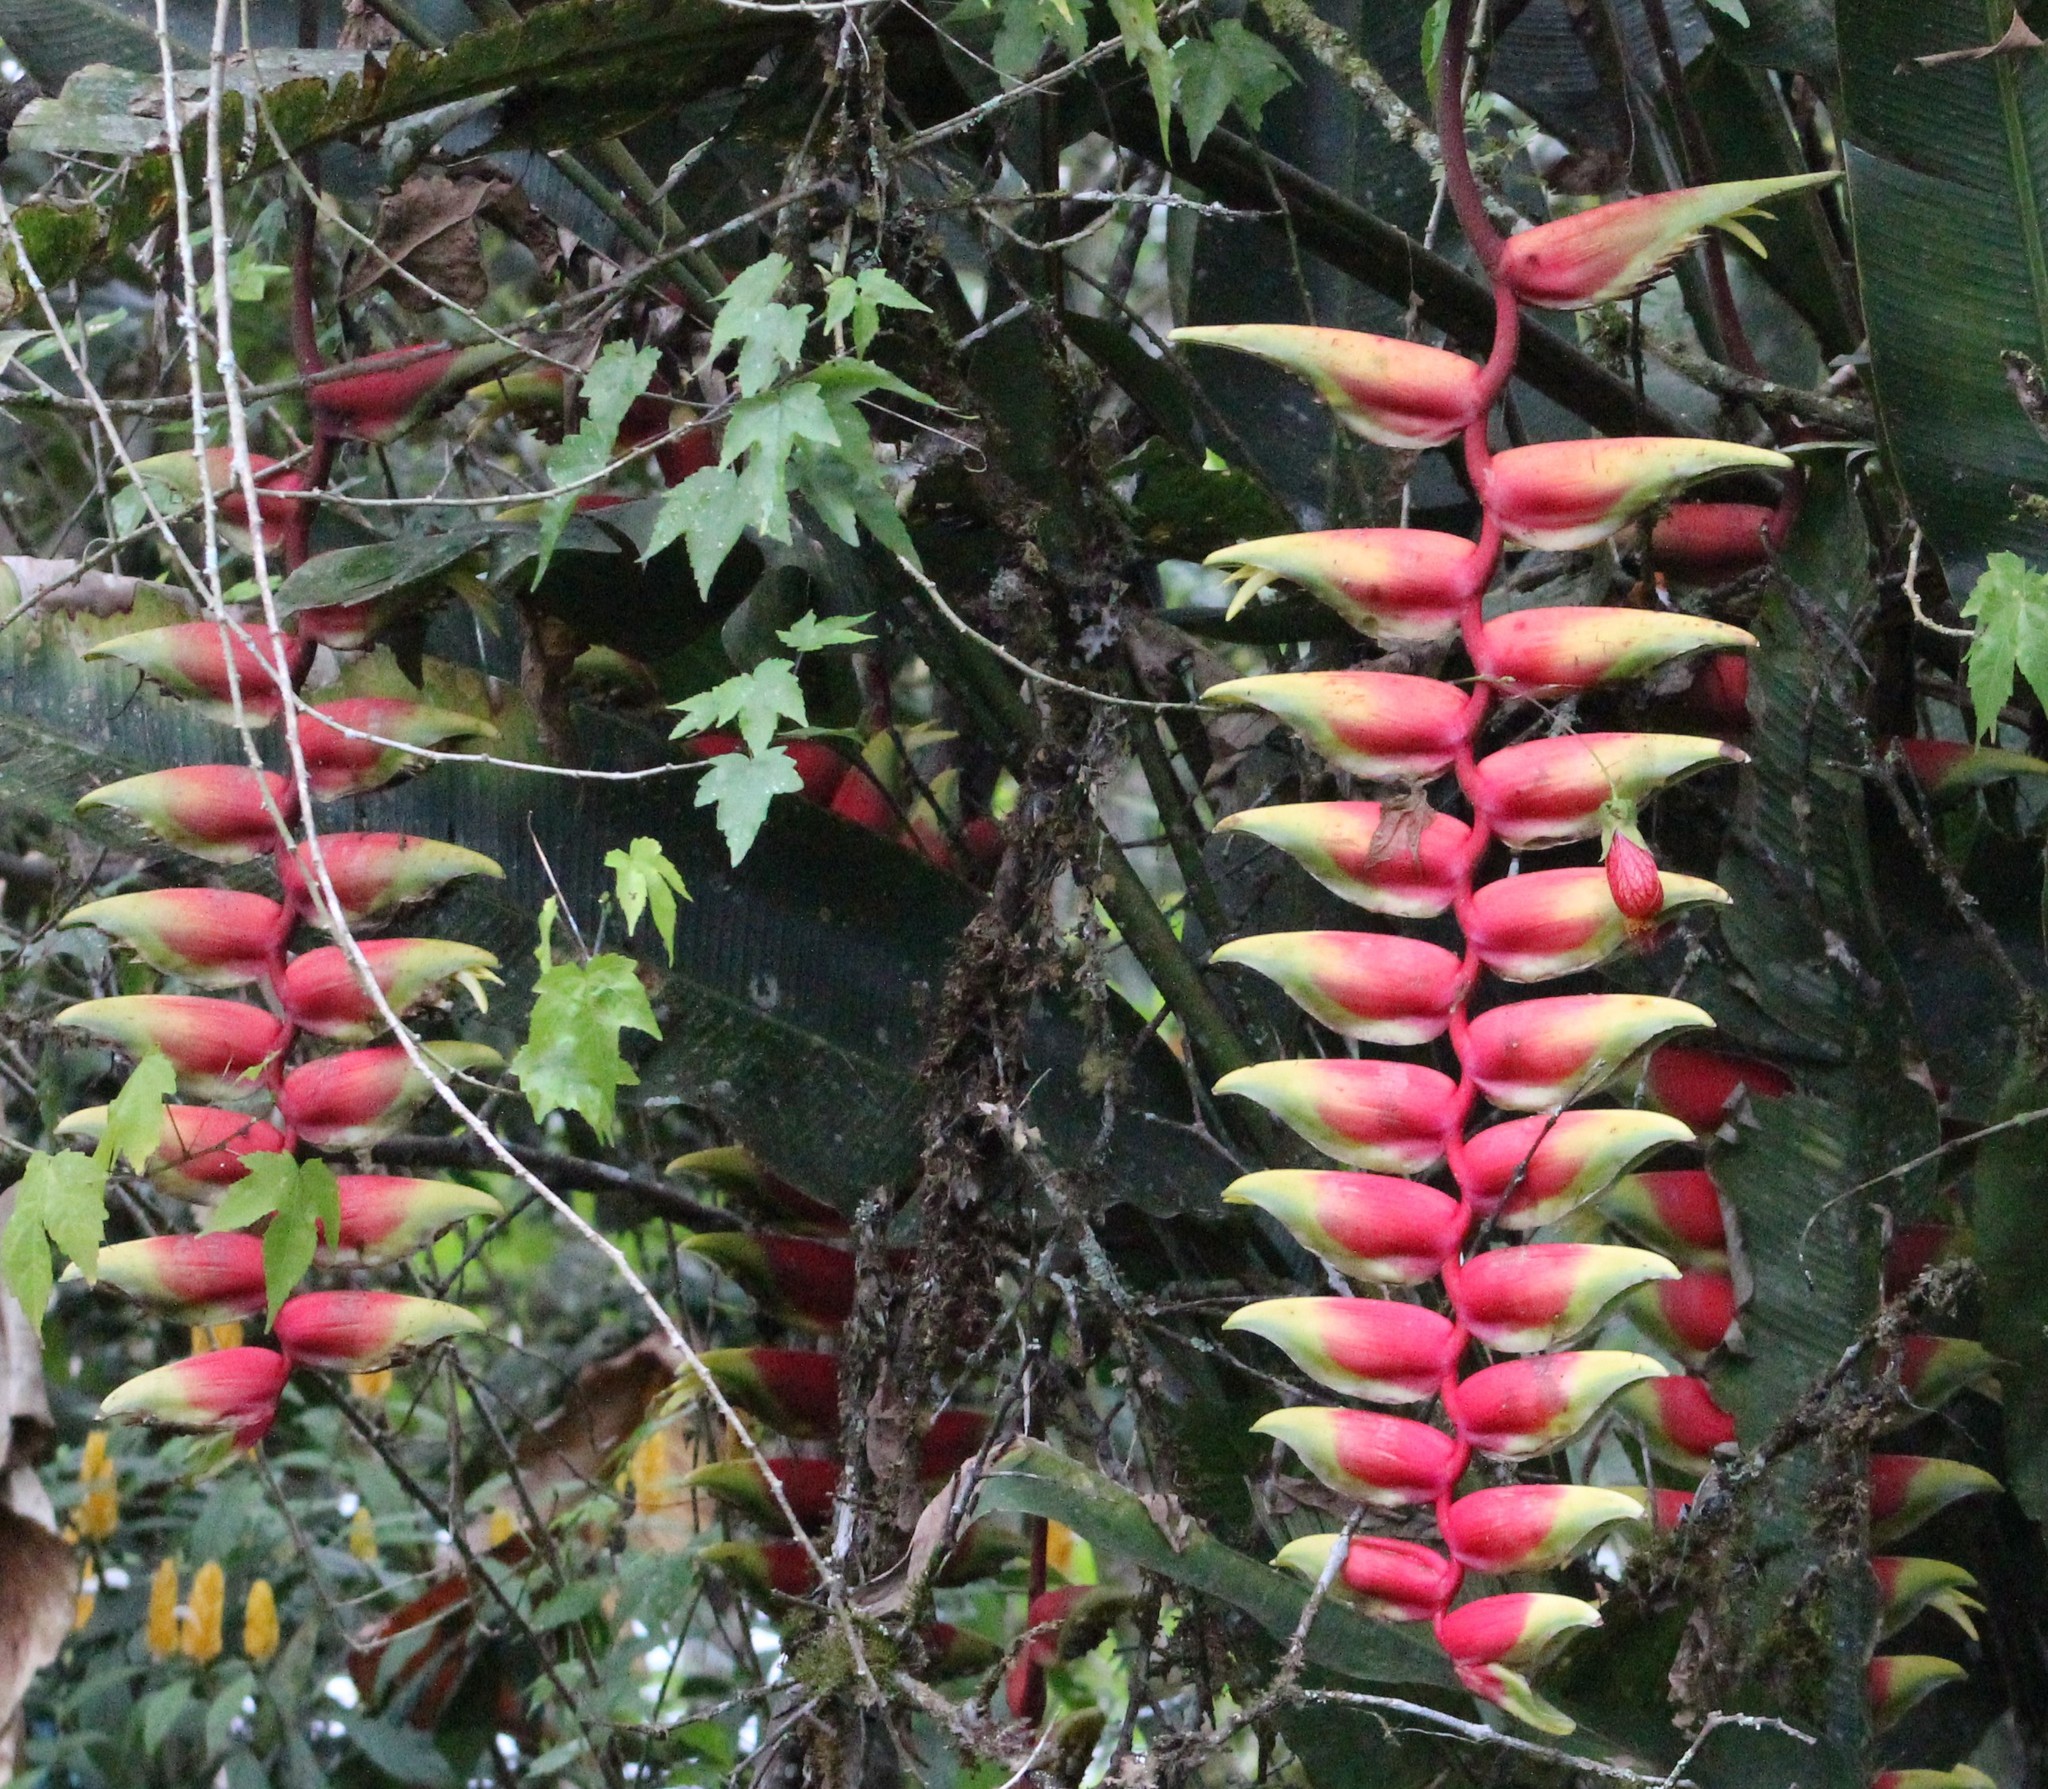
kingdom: Plantae
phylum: Tracheophyta
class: Liliopsida
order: Zingiberales
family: Heliconiaceae
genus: Heliconia
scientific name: Heliconia rostrata
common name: False bird of paradise
